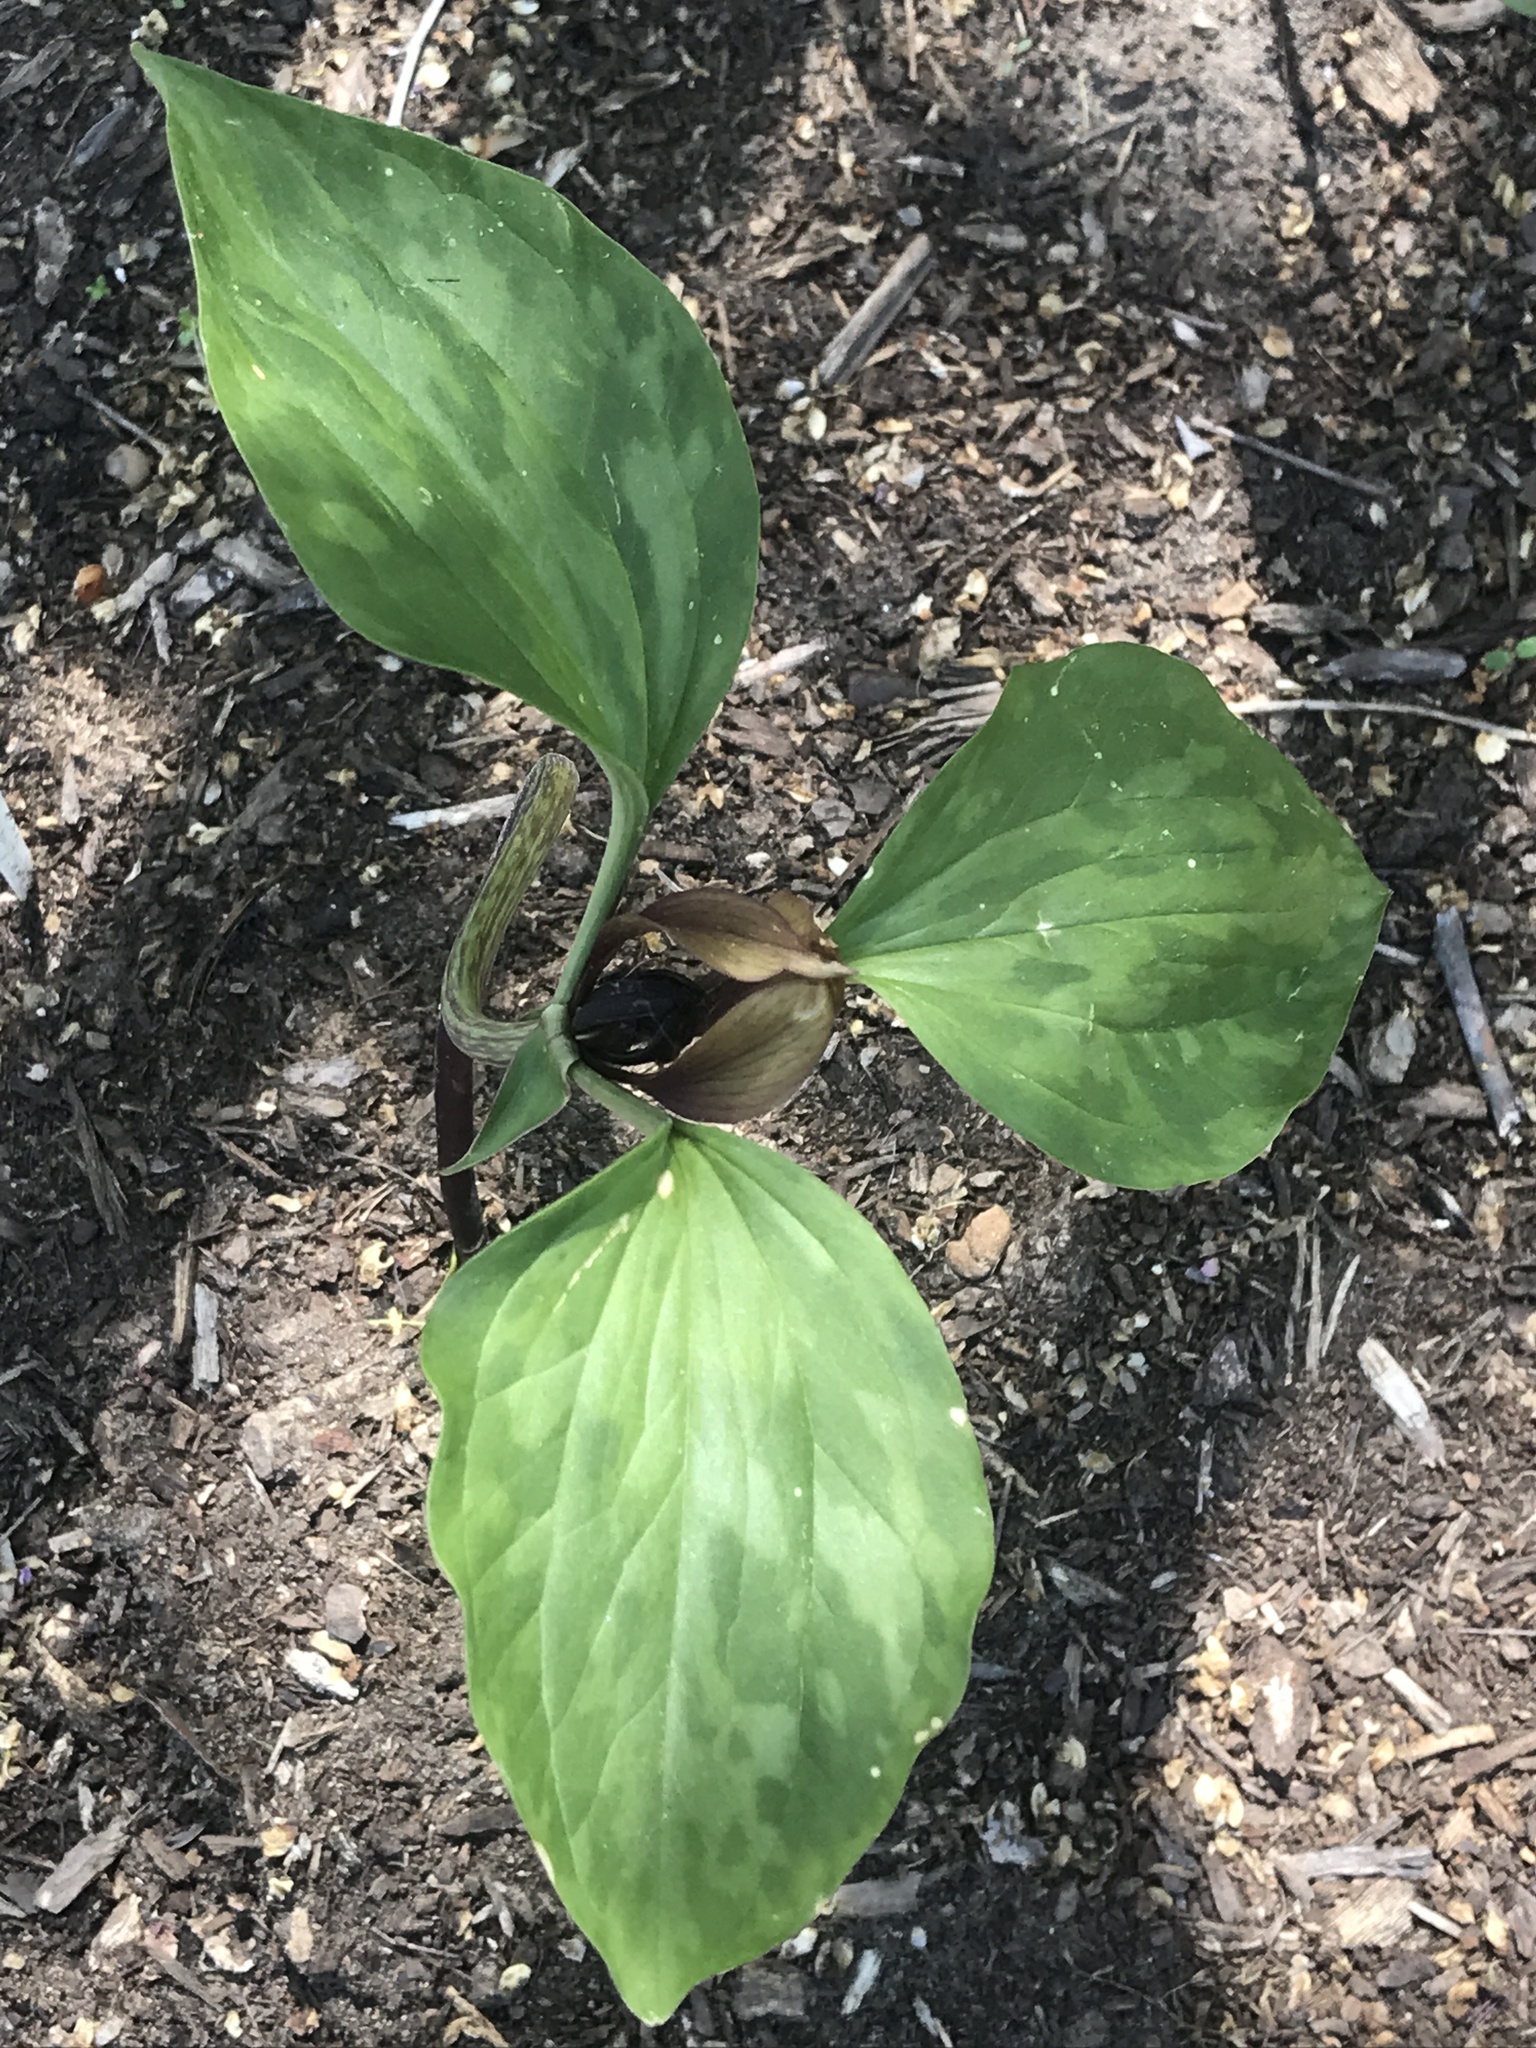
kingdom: Plantae
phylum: Tracheophyta
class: Liliopsida
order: Liliales
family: Melanthiaceae
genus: Trillium
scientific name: Trillium recurvatum
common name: Bloody butcher
